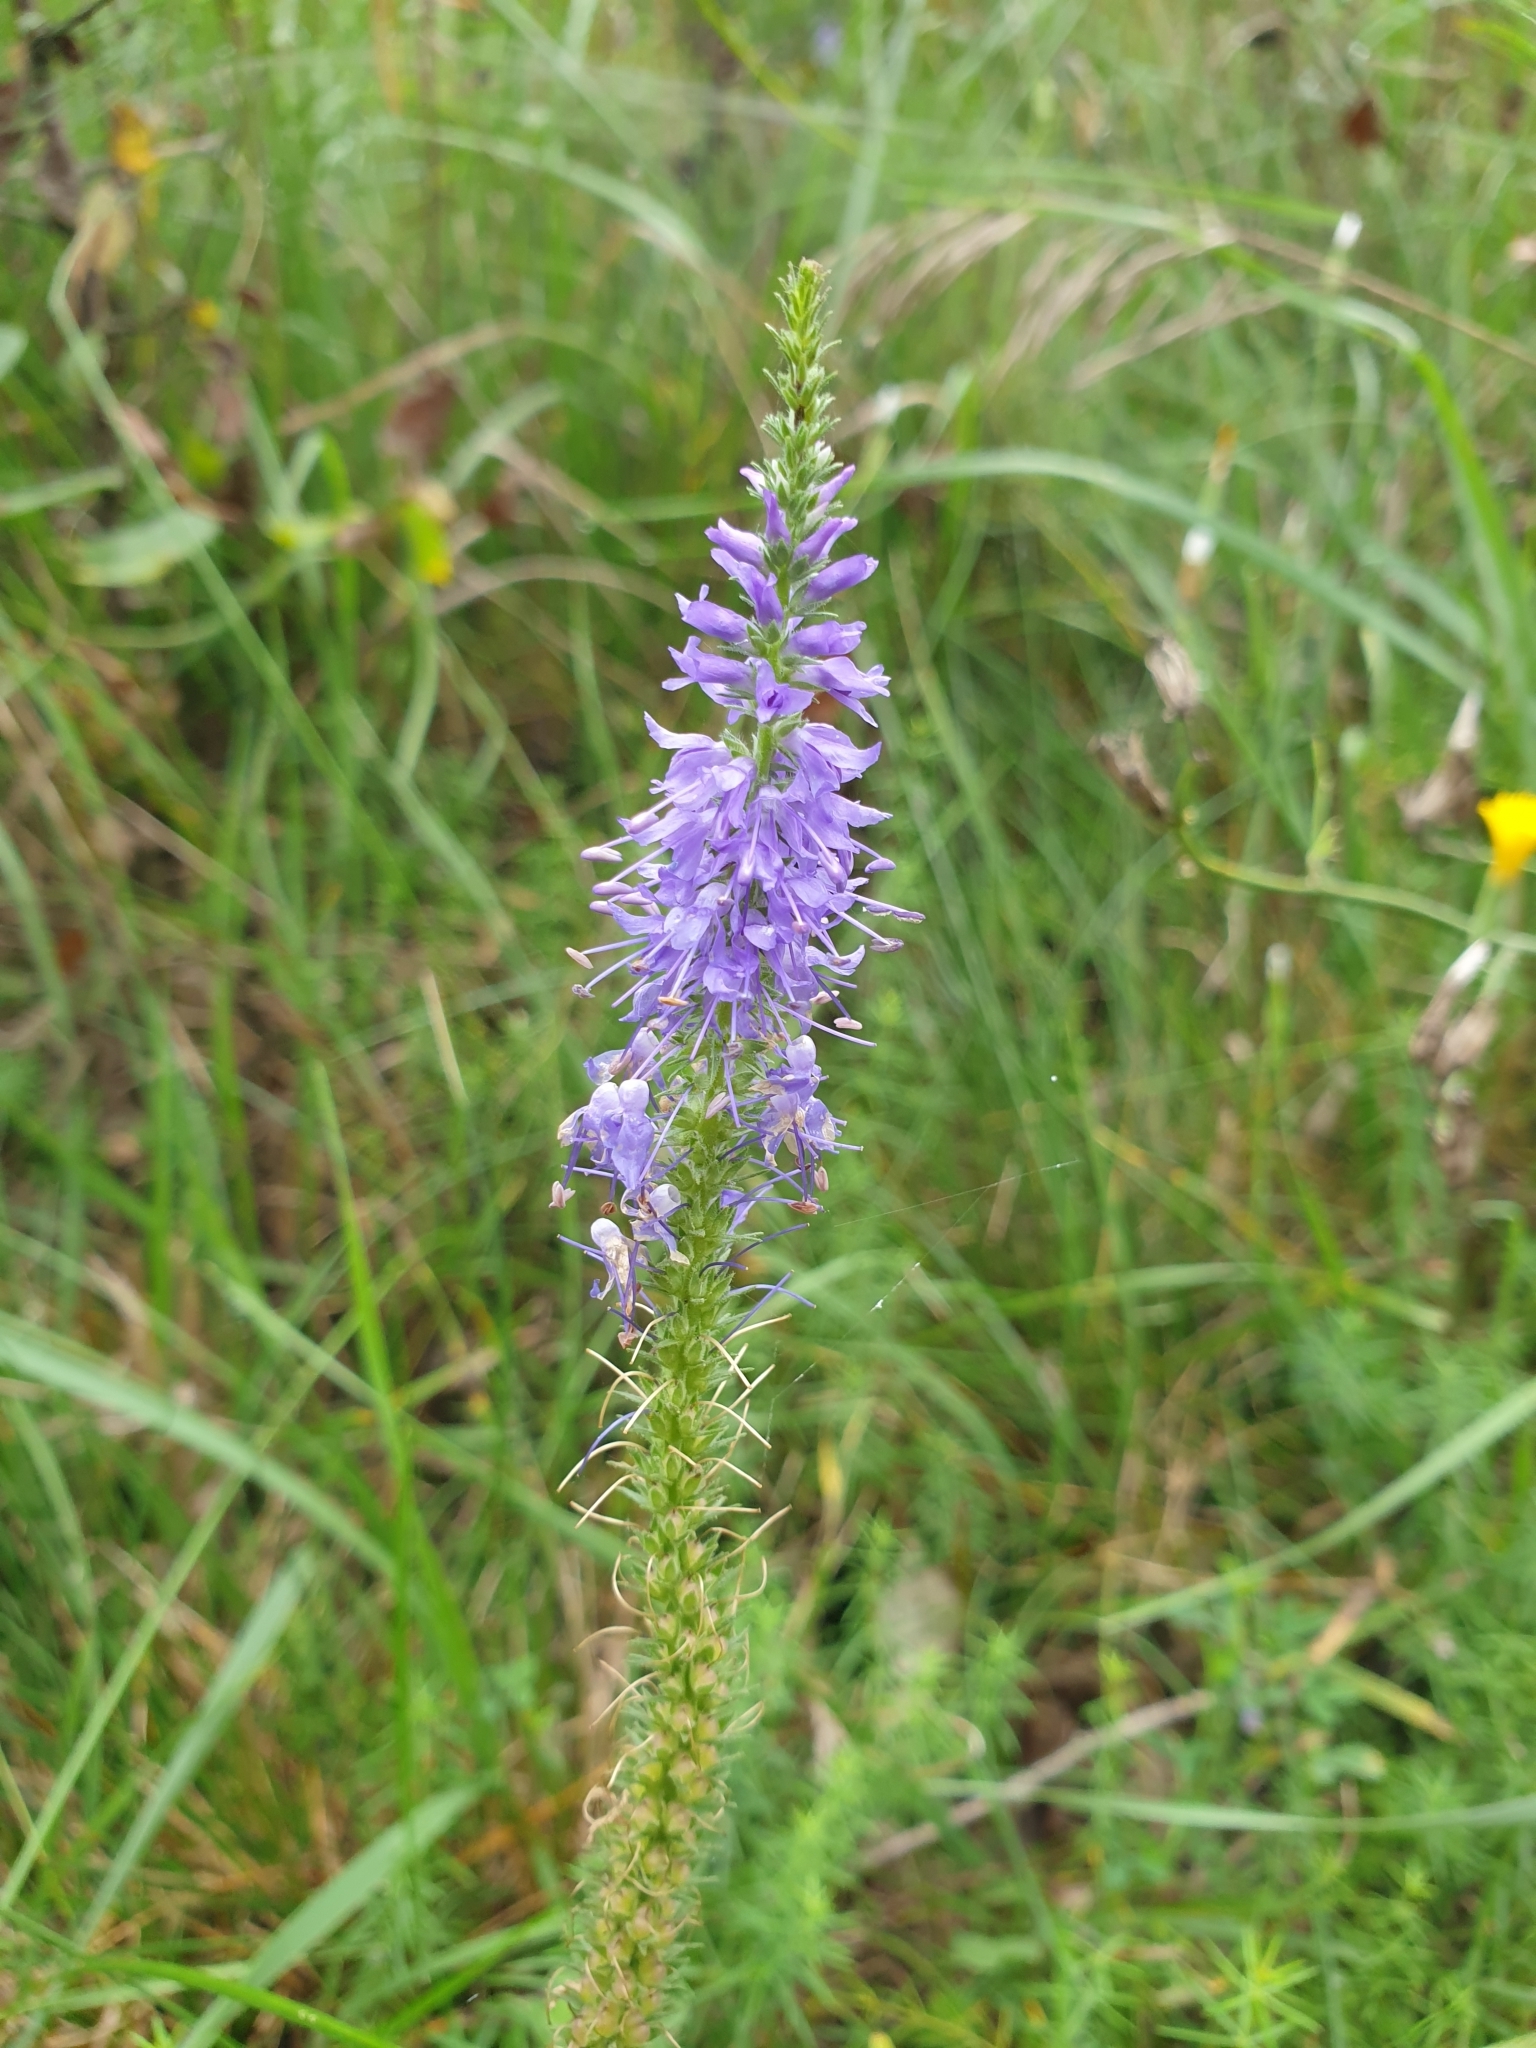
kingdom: Plantae
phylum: Tracheophyta
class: Magnoliopsida
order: Lamiales
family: Plantaginaceae
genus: Veronica
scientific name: Veronica spicata
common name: Spiked speedwell
